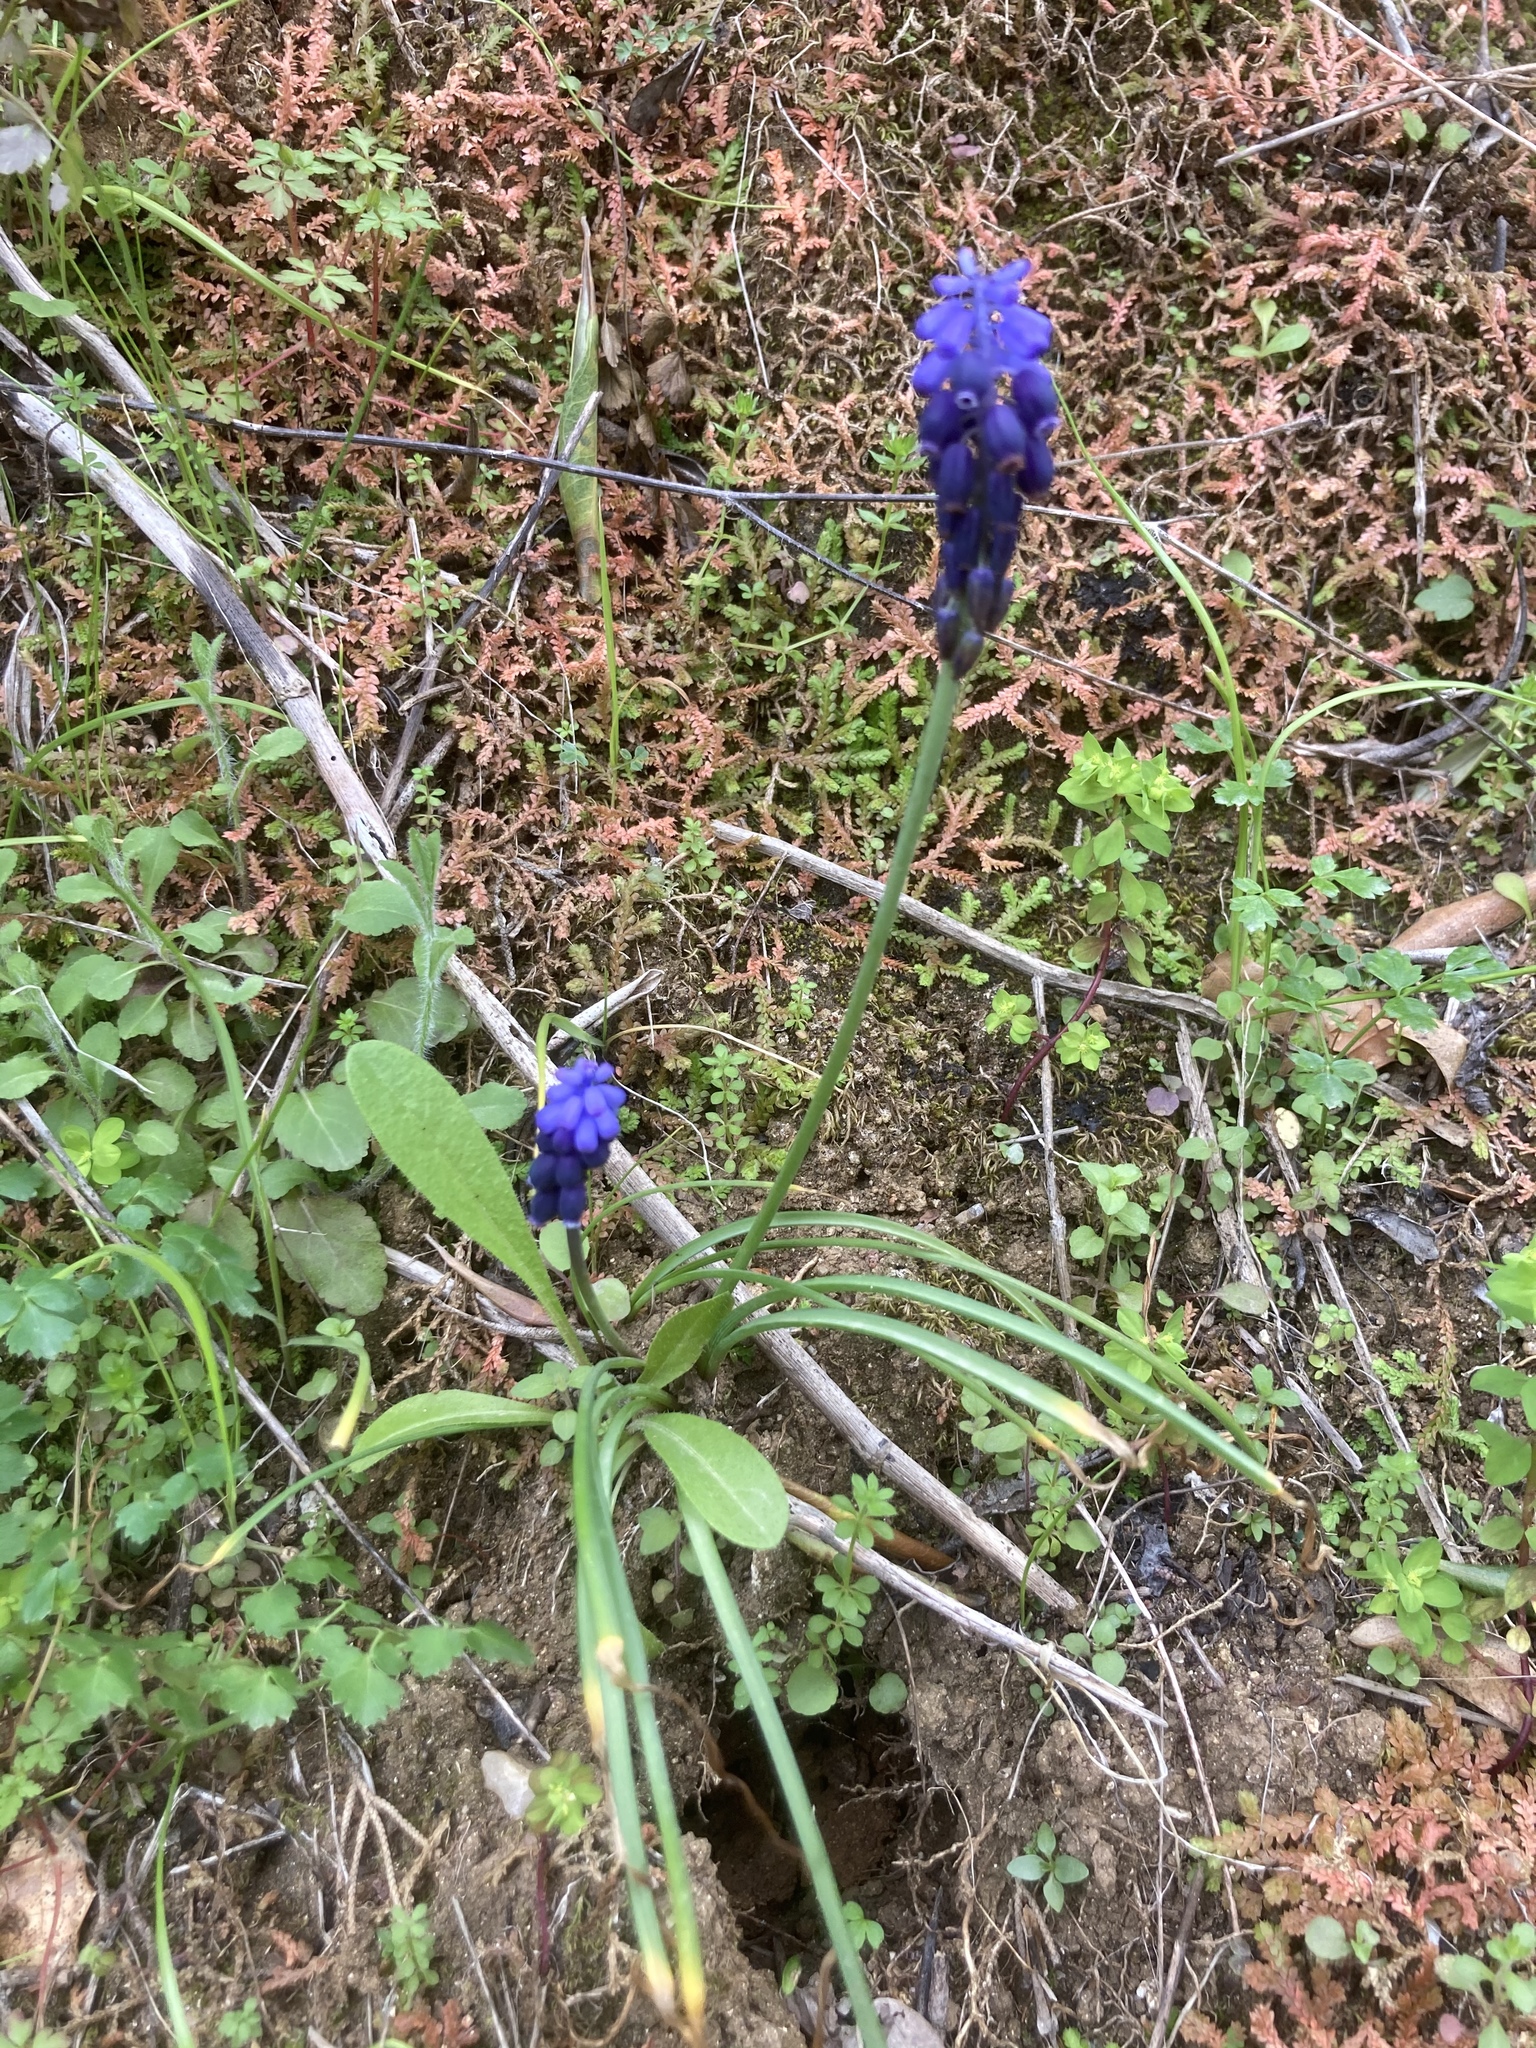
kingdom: Plantae
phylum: Tracheophyta
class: Lycopodiopsida
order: Selaginellales
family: Selaginellaceae
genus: Selaginella
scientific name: Selaginella denticulata
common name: Toothed-leaved clubmoss
